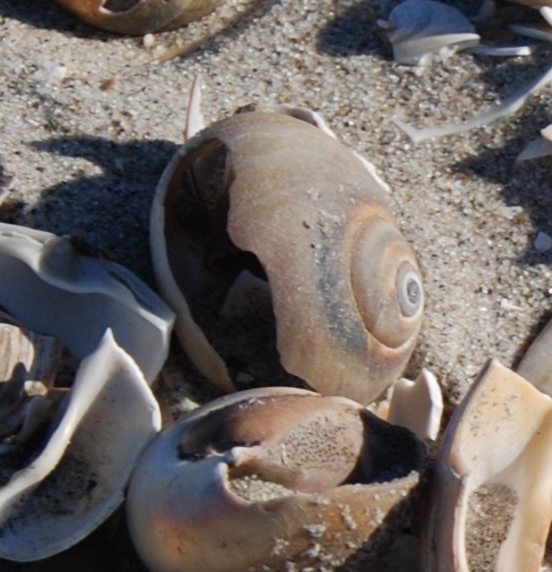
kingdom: Animalia
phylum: Mollusca
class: Gastropoda
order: Littorinimorpha
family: Naticidae
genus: Neverita
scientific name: Neverita duplicata
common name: Lobed moonsnail
